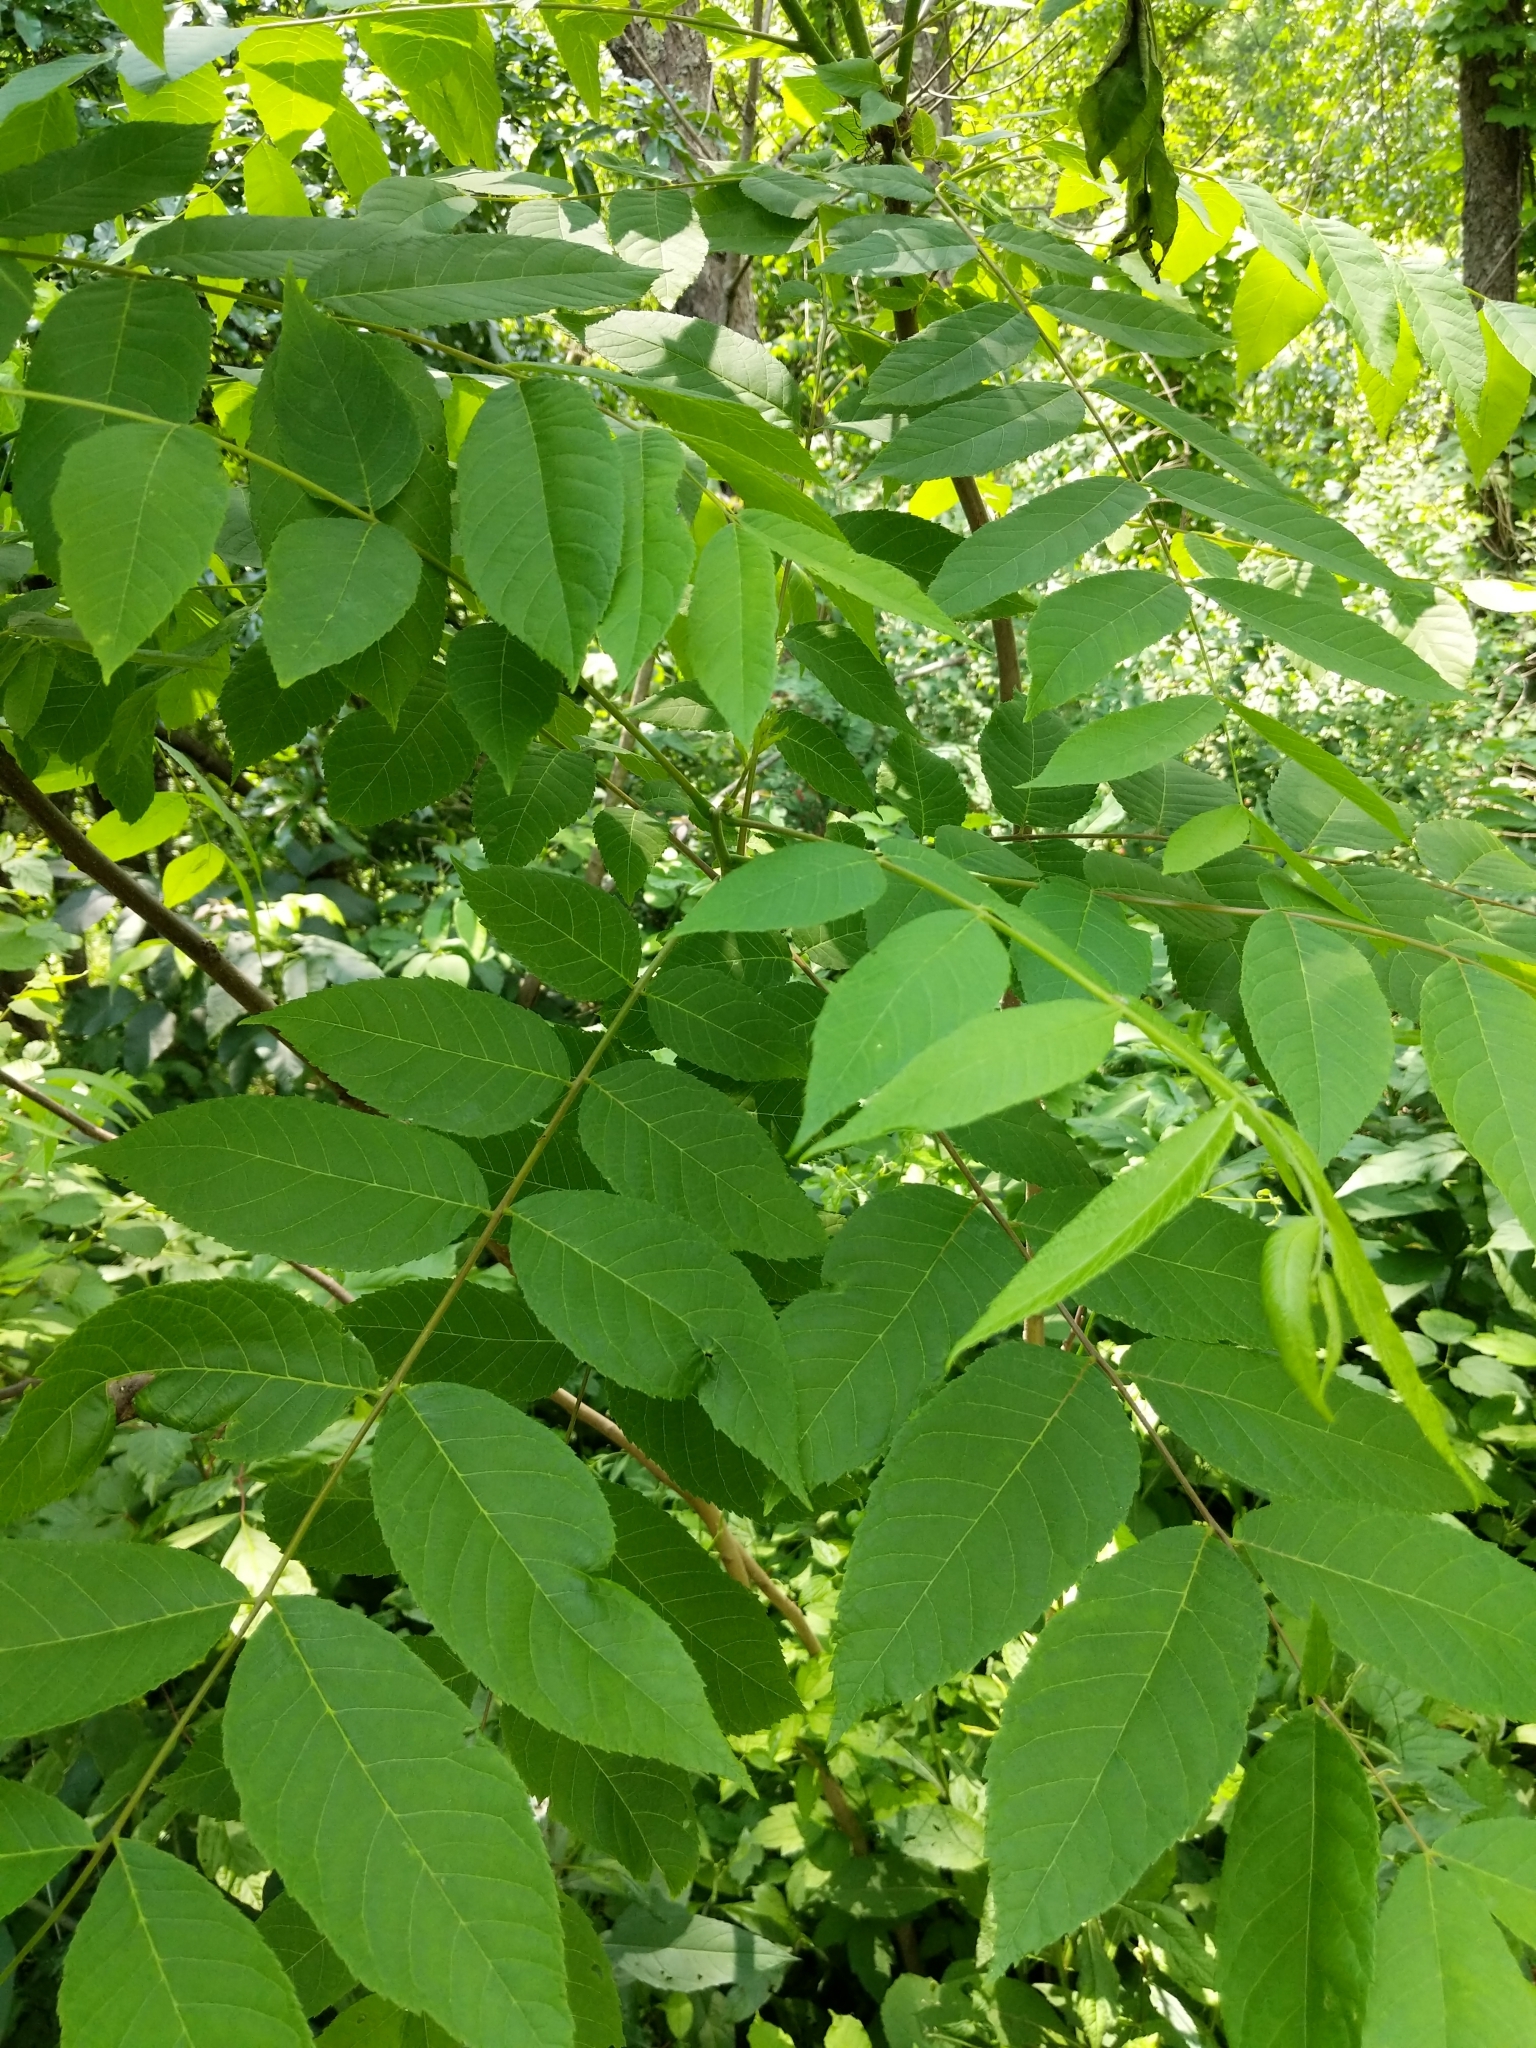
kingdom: Plantae
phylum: Tracheophyta
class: Magnoliopsida
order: Fagales
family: Juglandaceae
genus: Juglans
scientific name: Juglans nigra
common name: Black walnut
